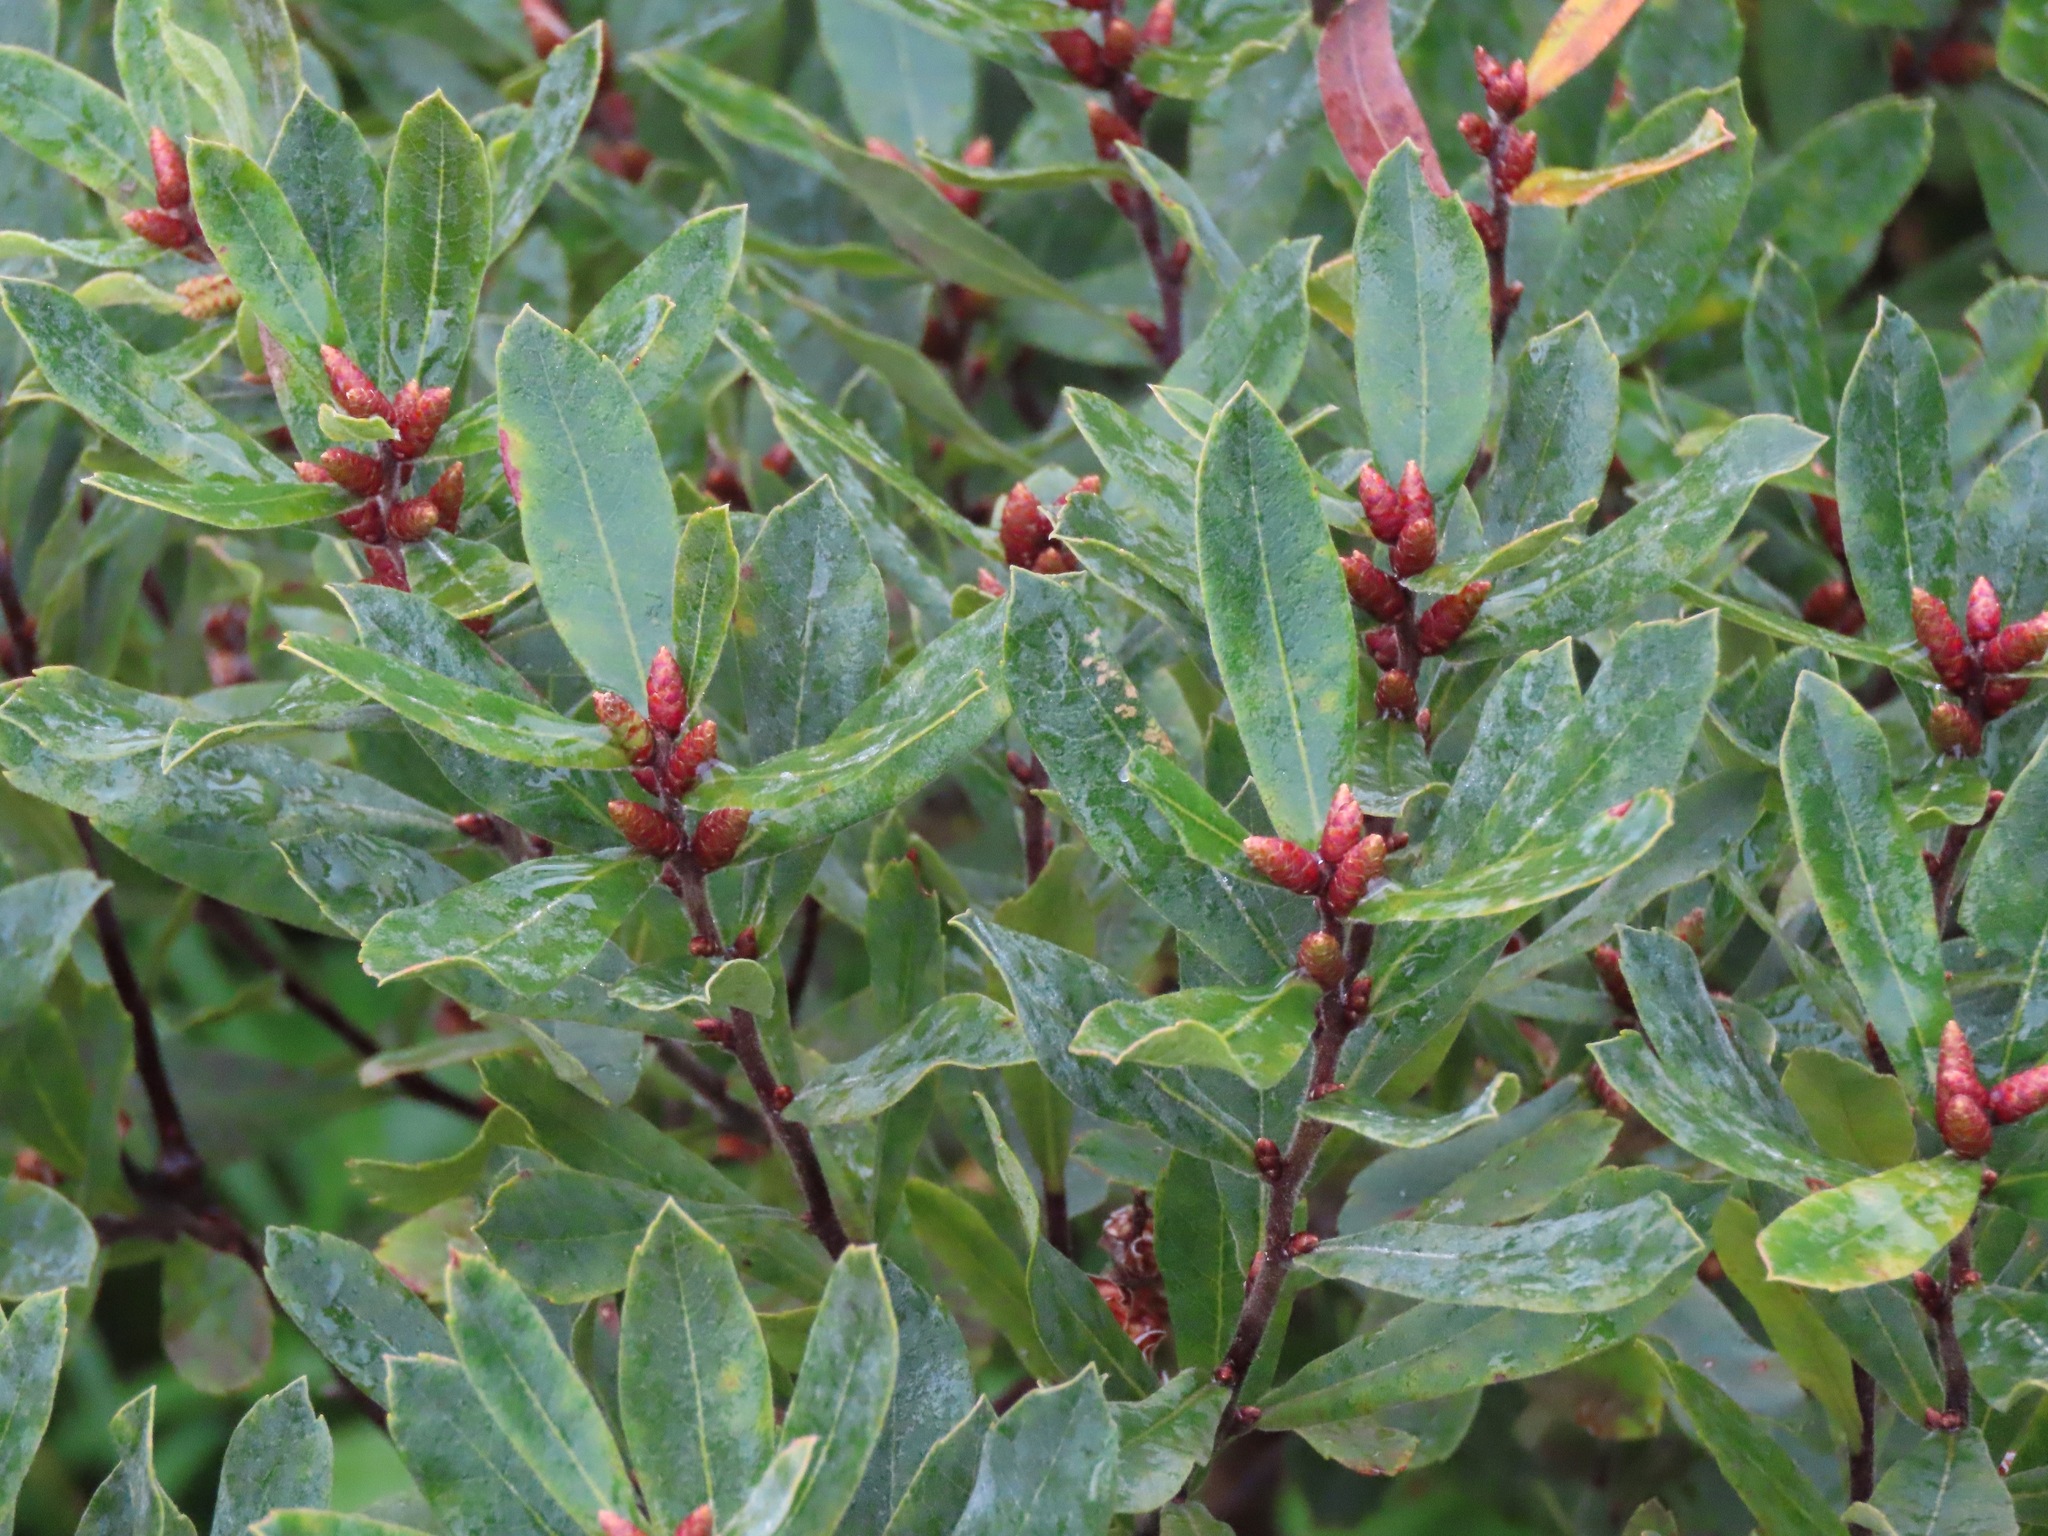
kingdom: Plantae
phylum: Tracheophyta
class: Magnoliopsida
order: Fagales
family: Myricaceae
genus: Myrica
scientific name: Myrica gale
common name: Sweet gale
